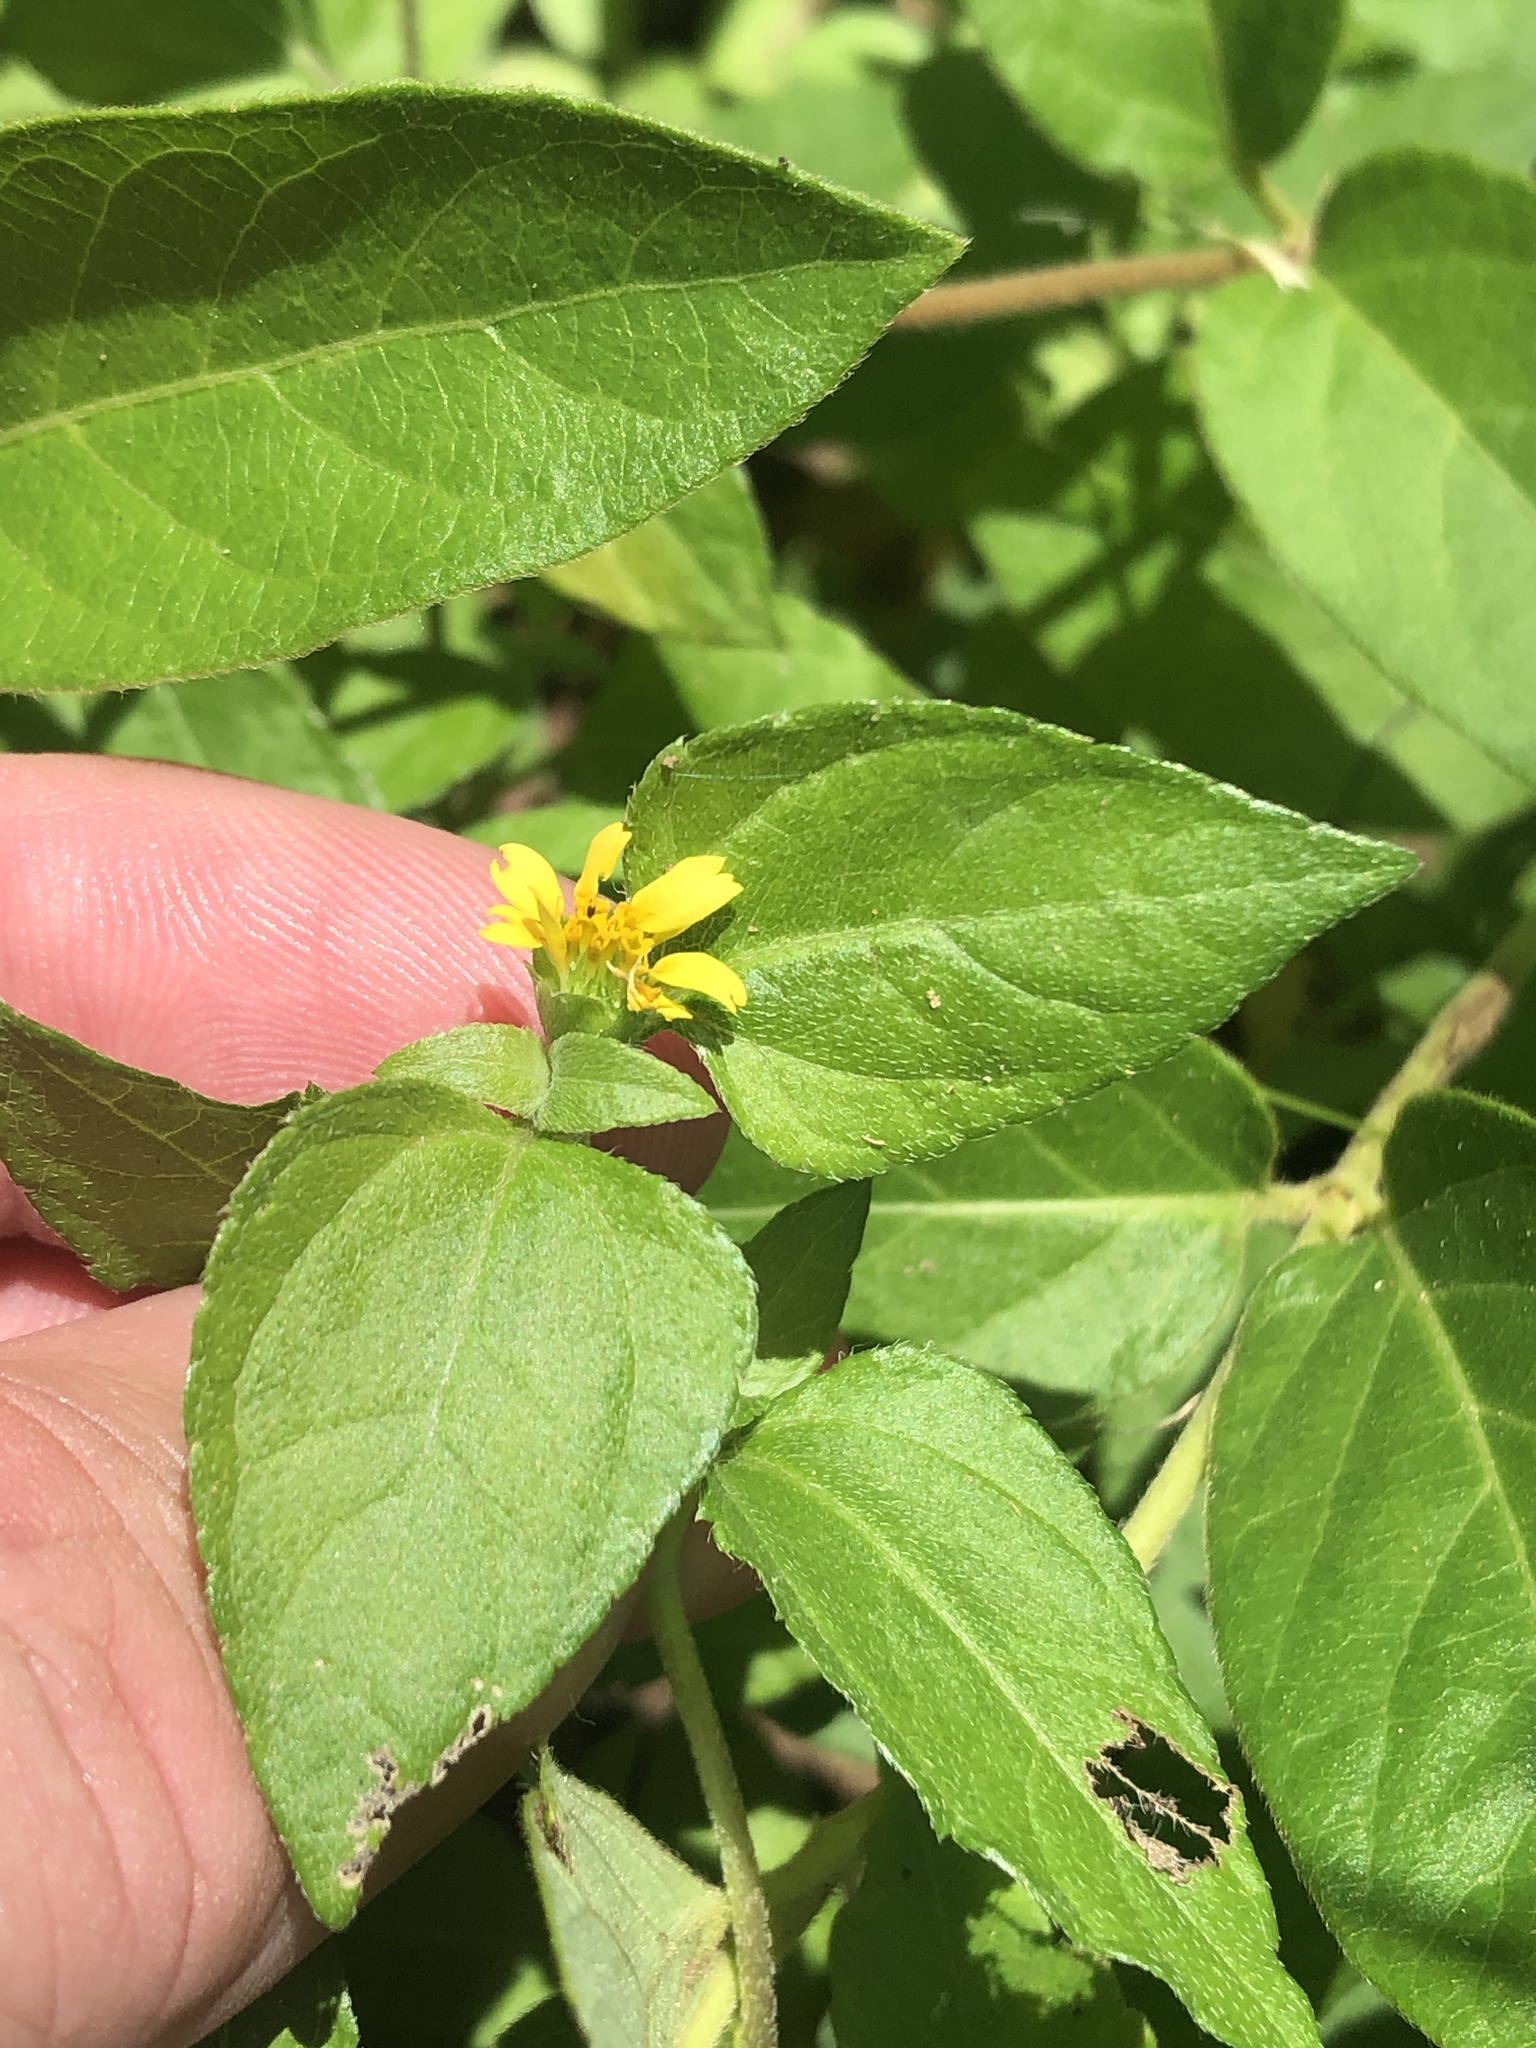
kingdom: Plantae
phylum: Tracheophyta
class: Magnoliopsida
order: Asterales
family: Asteraceae
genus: Calyptocarpus
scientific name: Calyptocarpus vialis
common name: Straggler daisy
